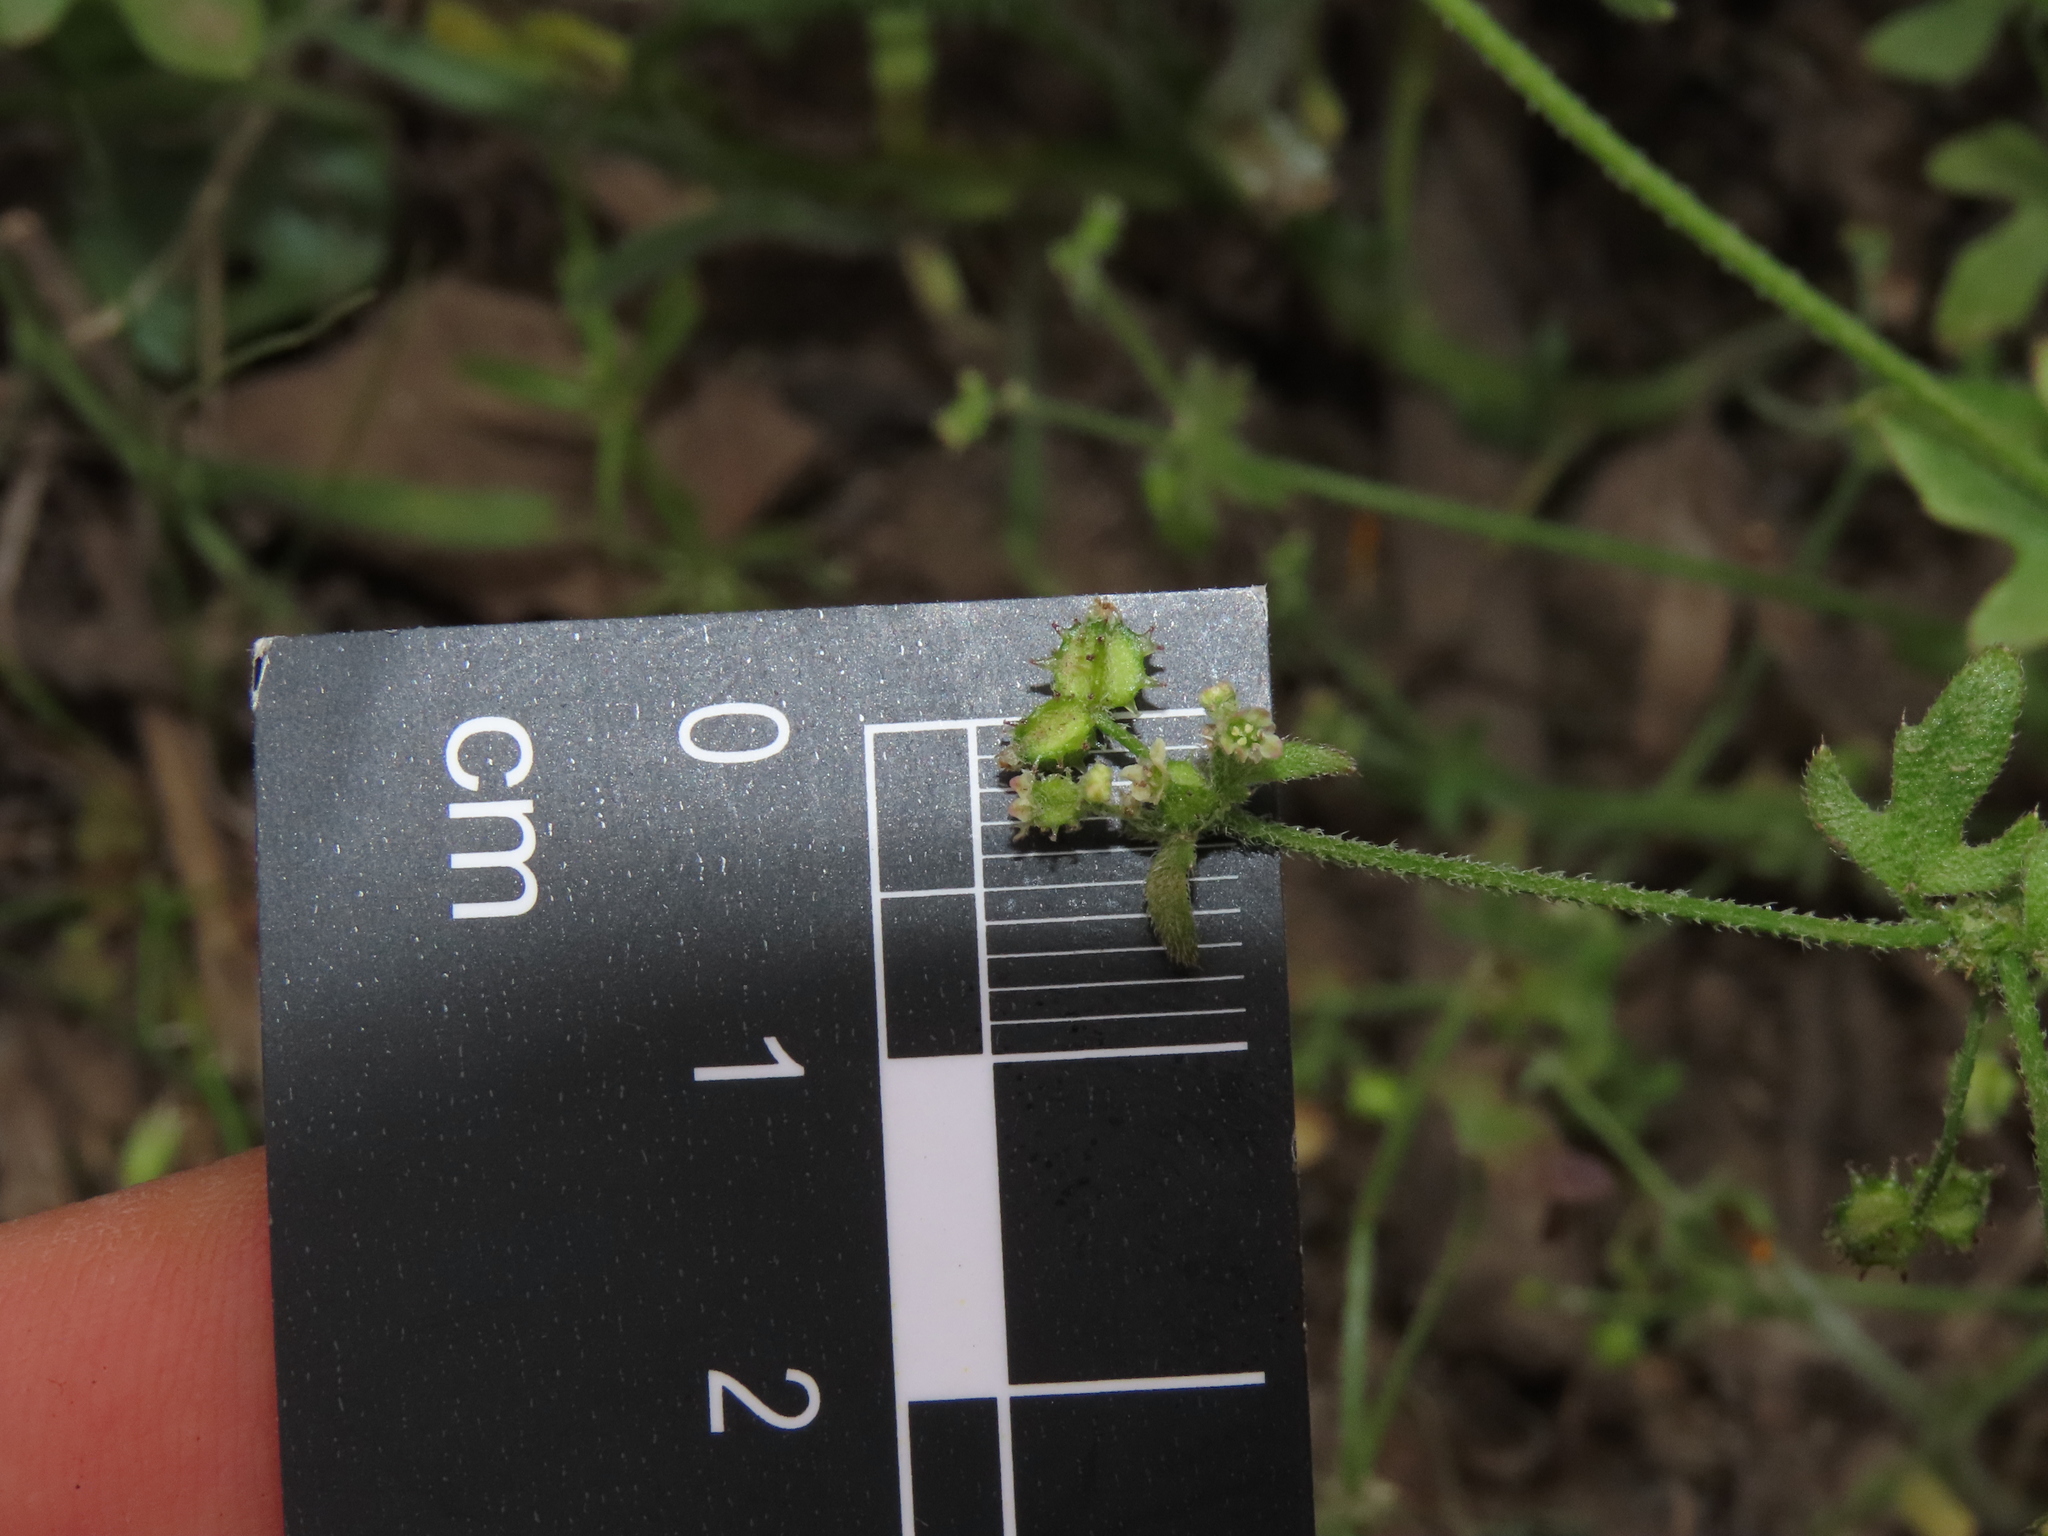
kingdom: Plantae
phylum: Tracheophyta
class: Magnoliopsida
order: Apiales
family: Apiaceae
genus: Bowlesia
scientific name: Bowlesia uncinata
